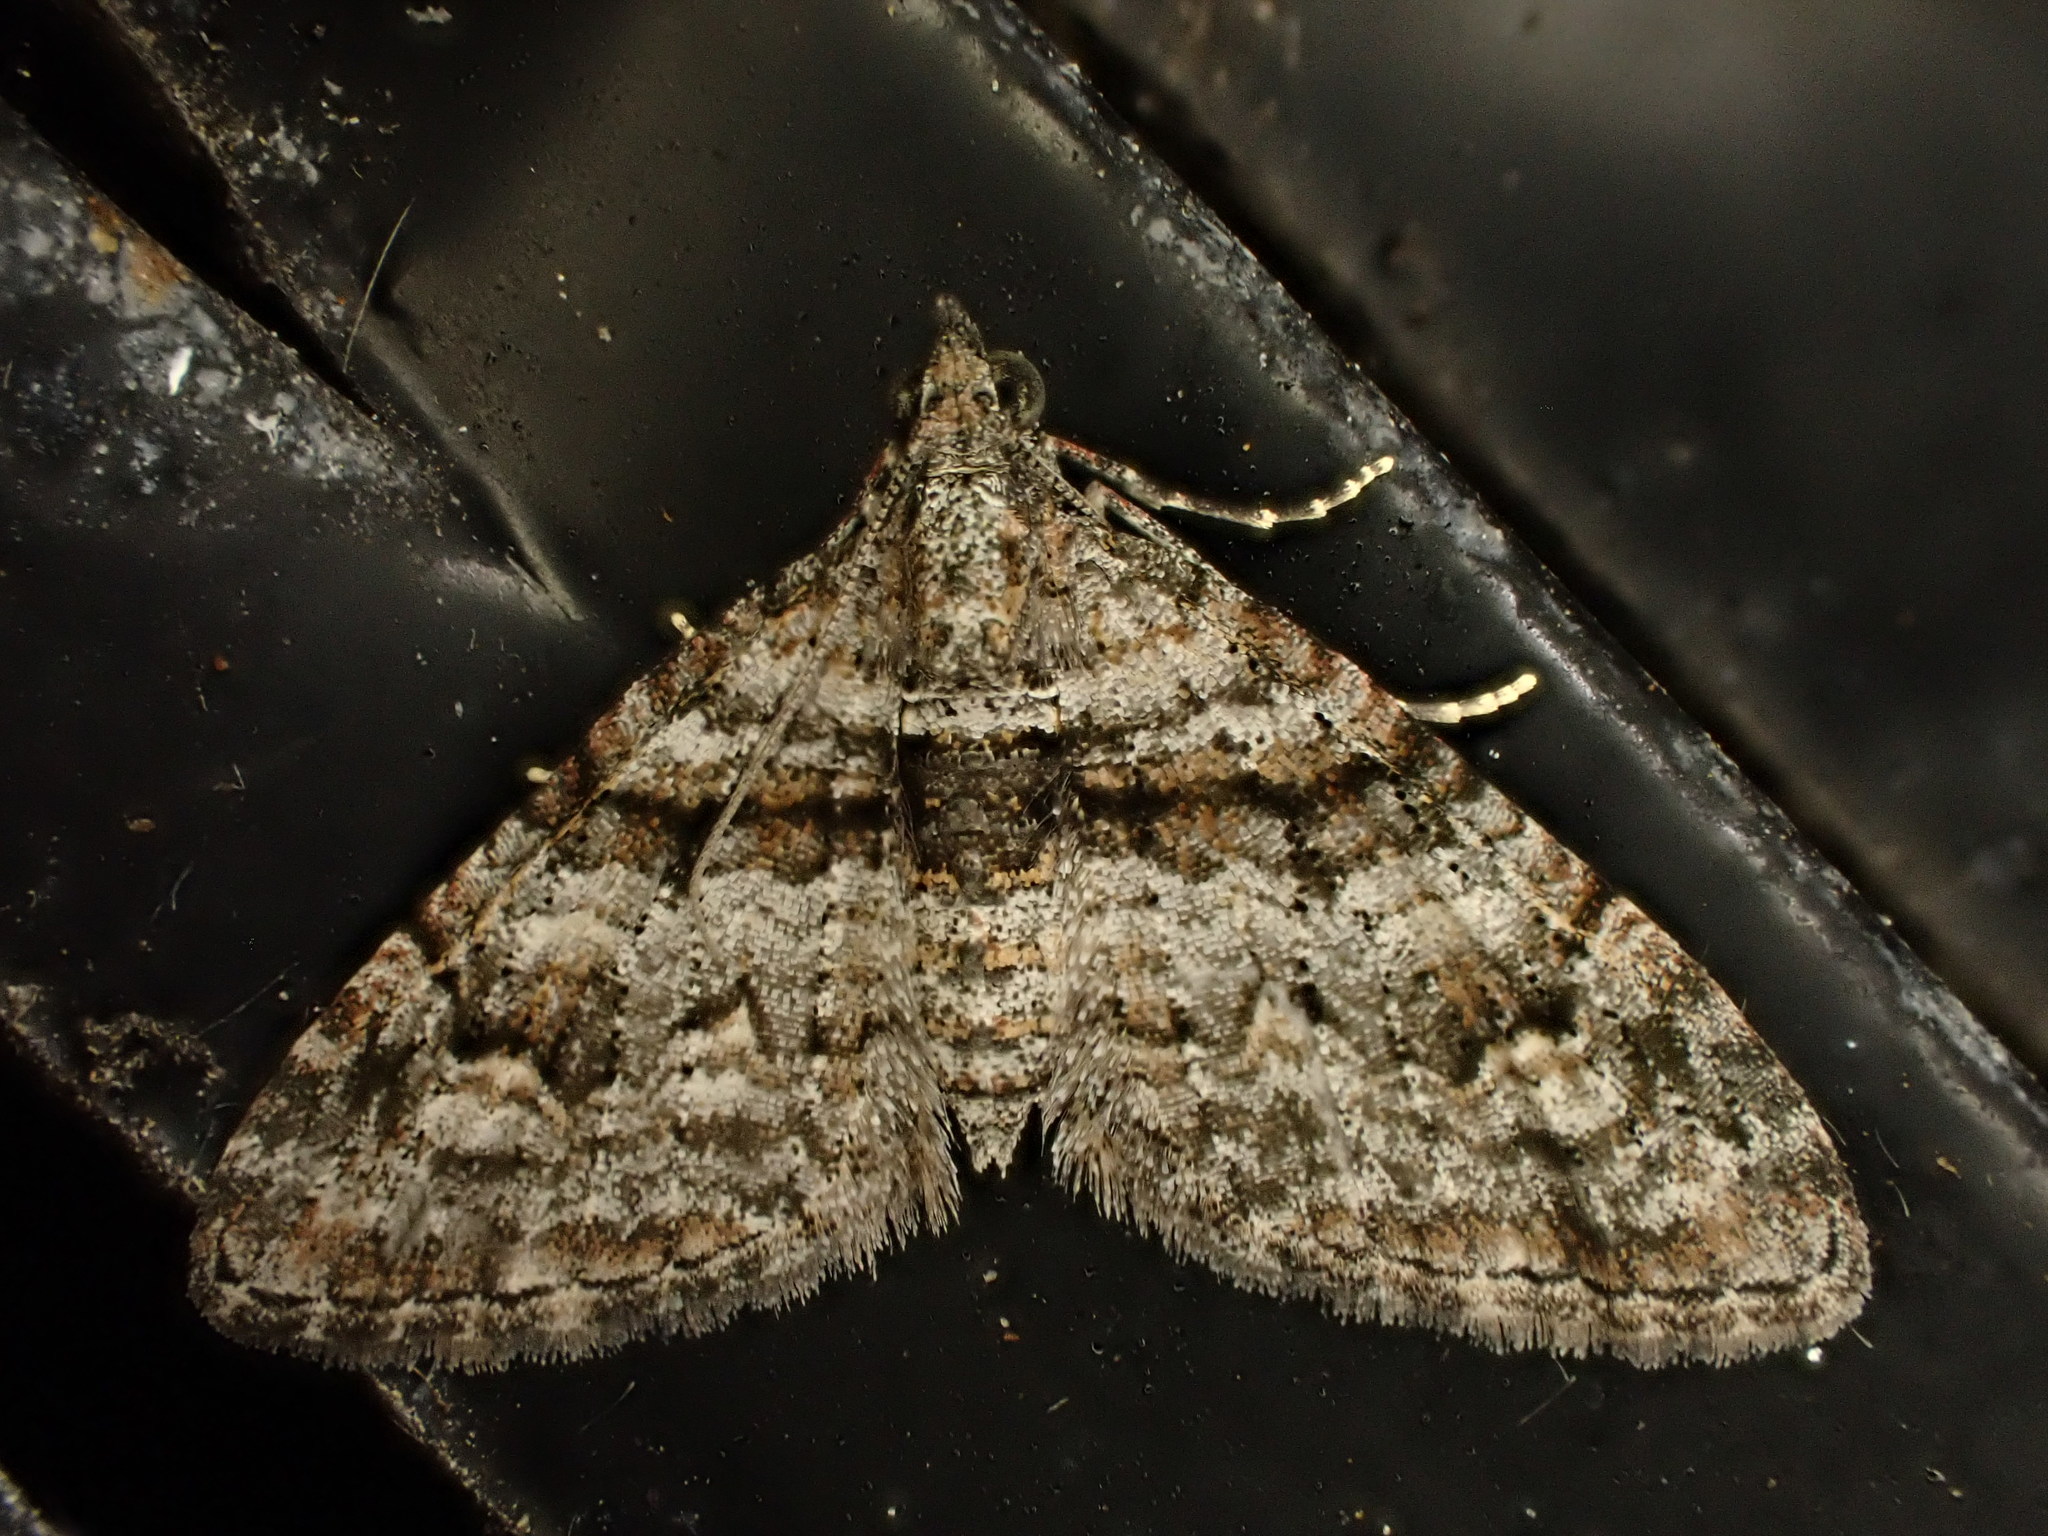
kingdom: Animalia
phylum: Arthropoda
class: Insecta
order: Lepidoptera
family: Geometridae
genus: Phrissogonus
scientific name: Phrissogonus laticostata
